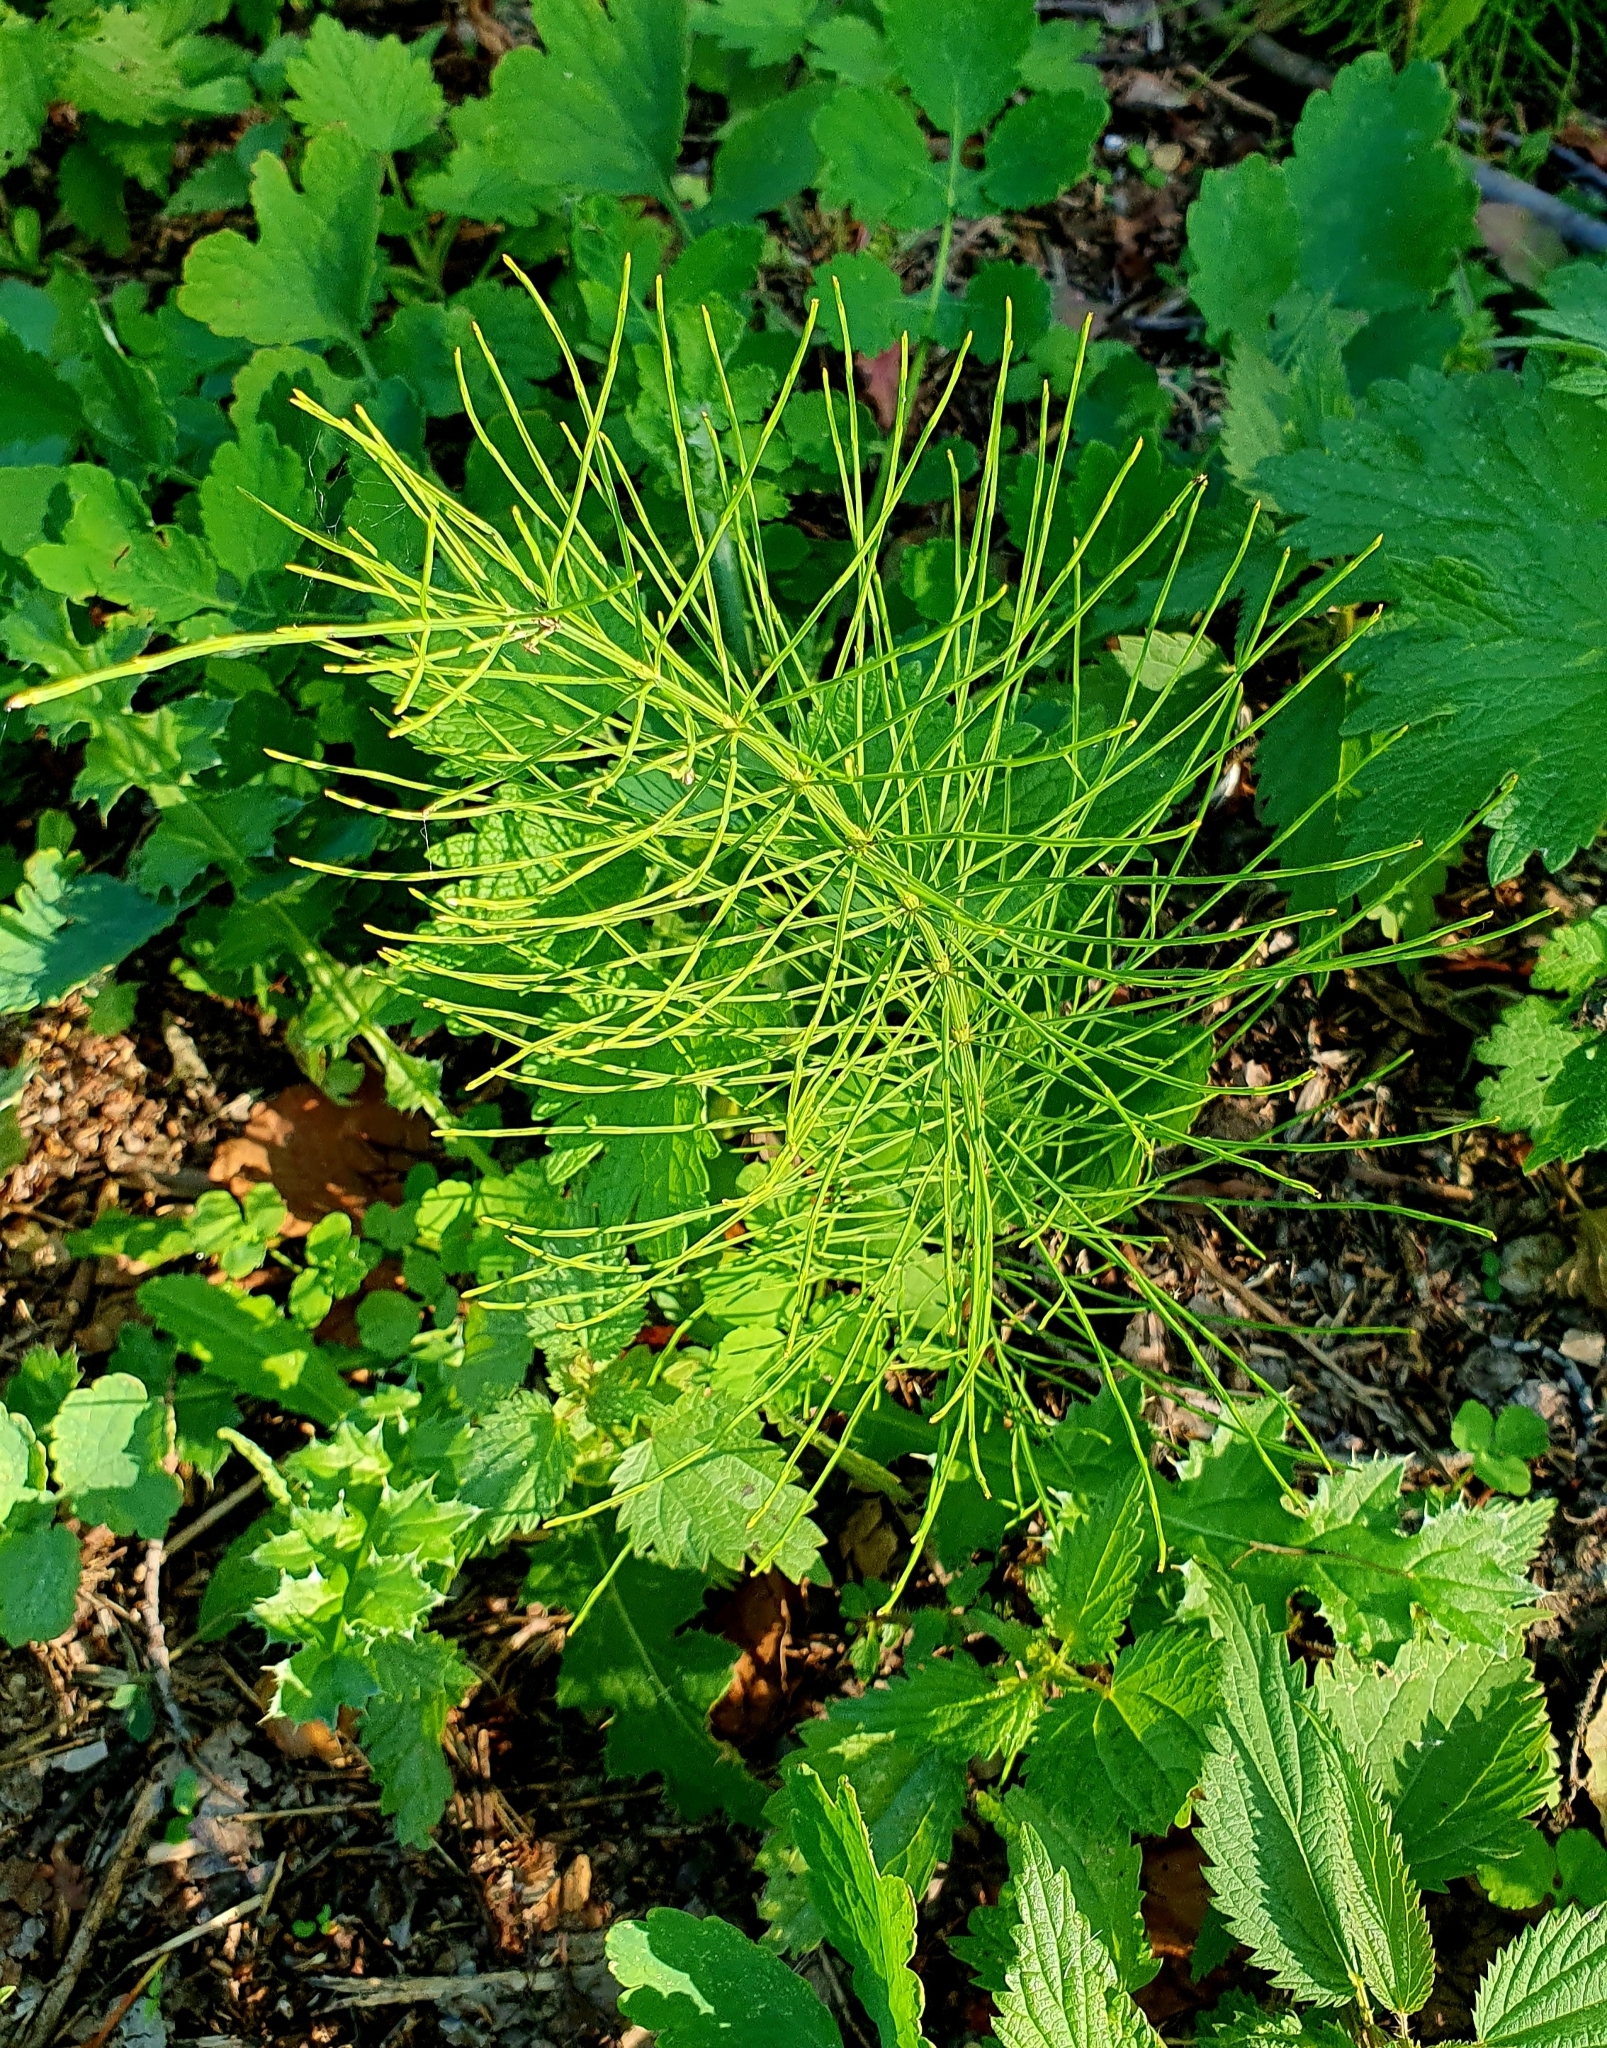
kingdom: Plantae
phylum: Tracheophyta
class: Polypodiopsida
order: Equisetales
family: Equisetaceae
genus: Equisetum
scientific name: Equisetum arvense
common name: Field horsetail
